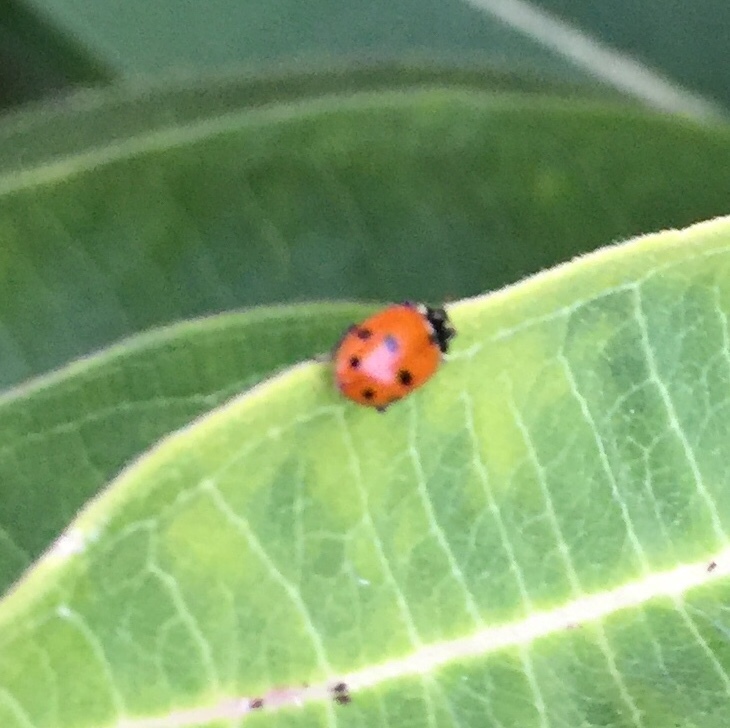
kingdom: Animalia
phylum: Arthropoda
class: Insecta
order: Coleoptera
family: Coccinellidae
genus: Hippodamia
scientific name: Hippodamia variegata
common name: Ladybird beetle
